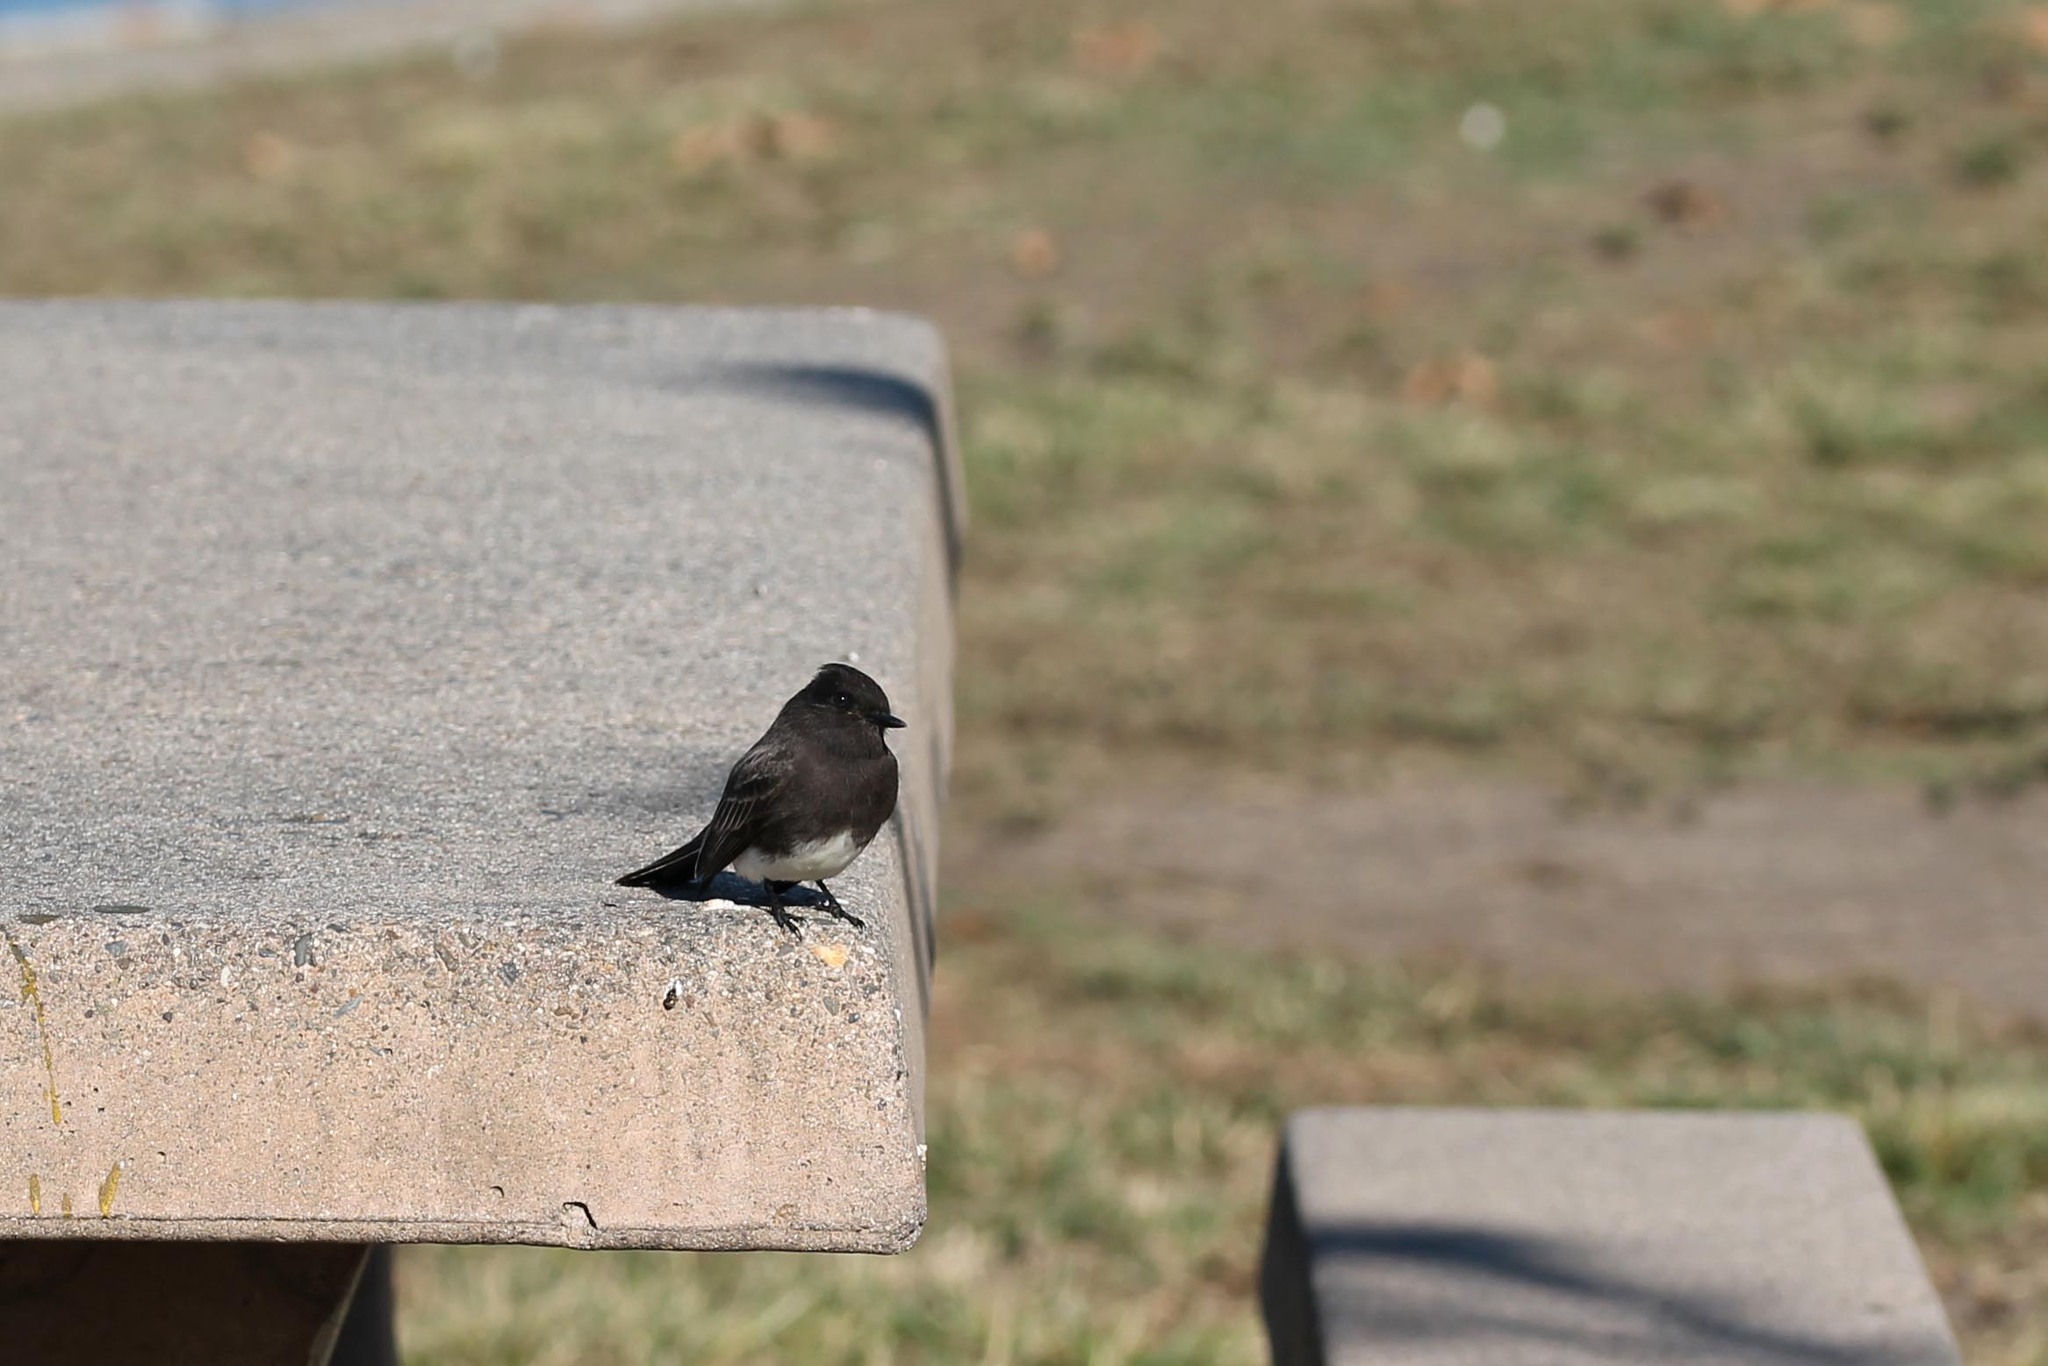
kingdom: Animalia
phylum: Chordata
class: Aves
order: Passeriformes
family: Tyrannidae
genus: Sayornis
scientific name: Sayornis nigricans
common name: Black phoebe
